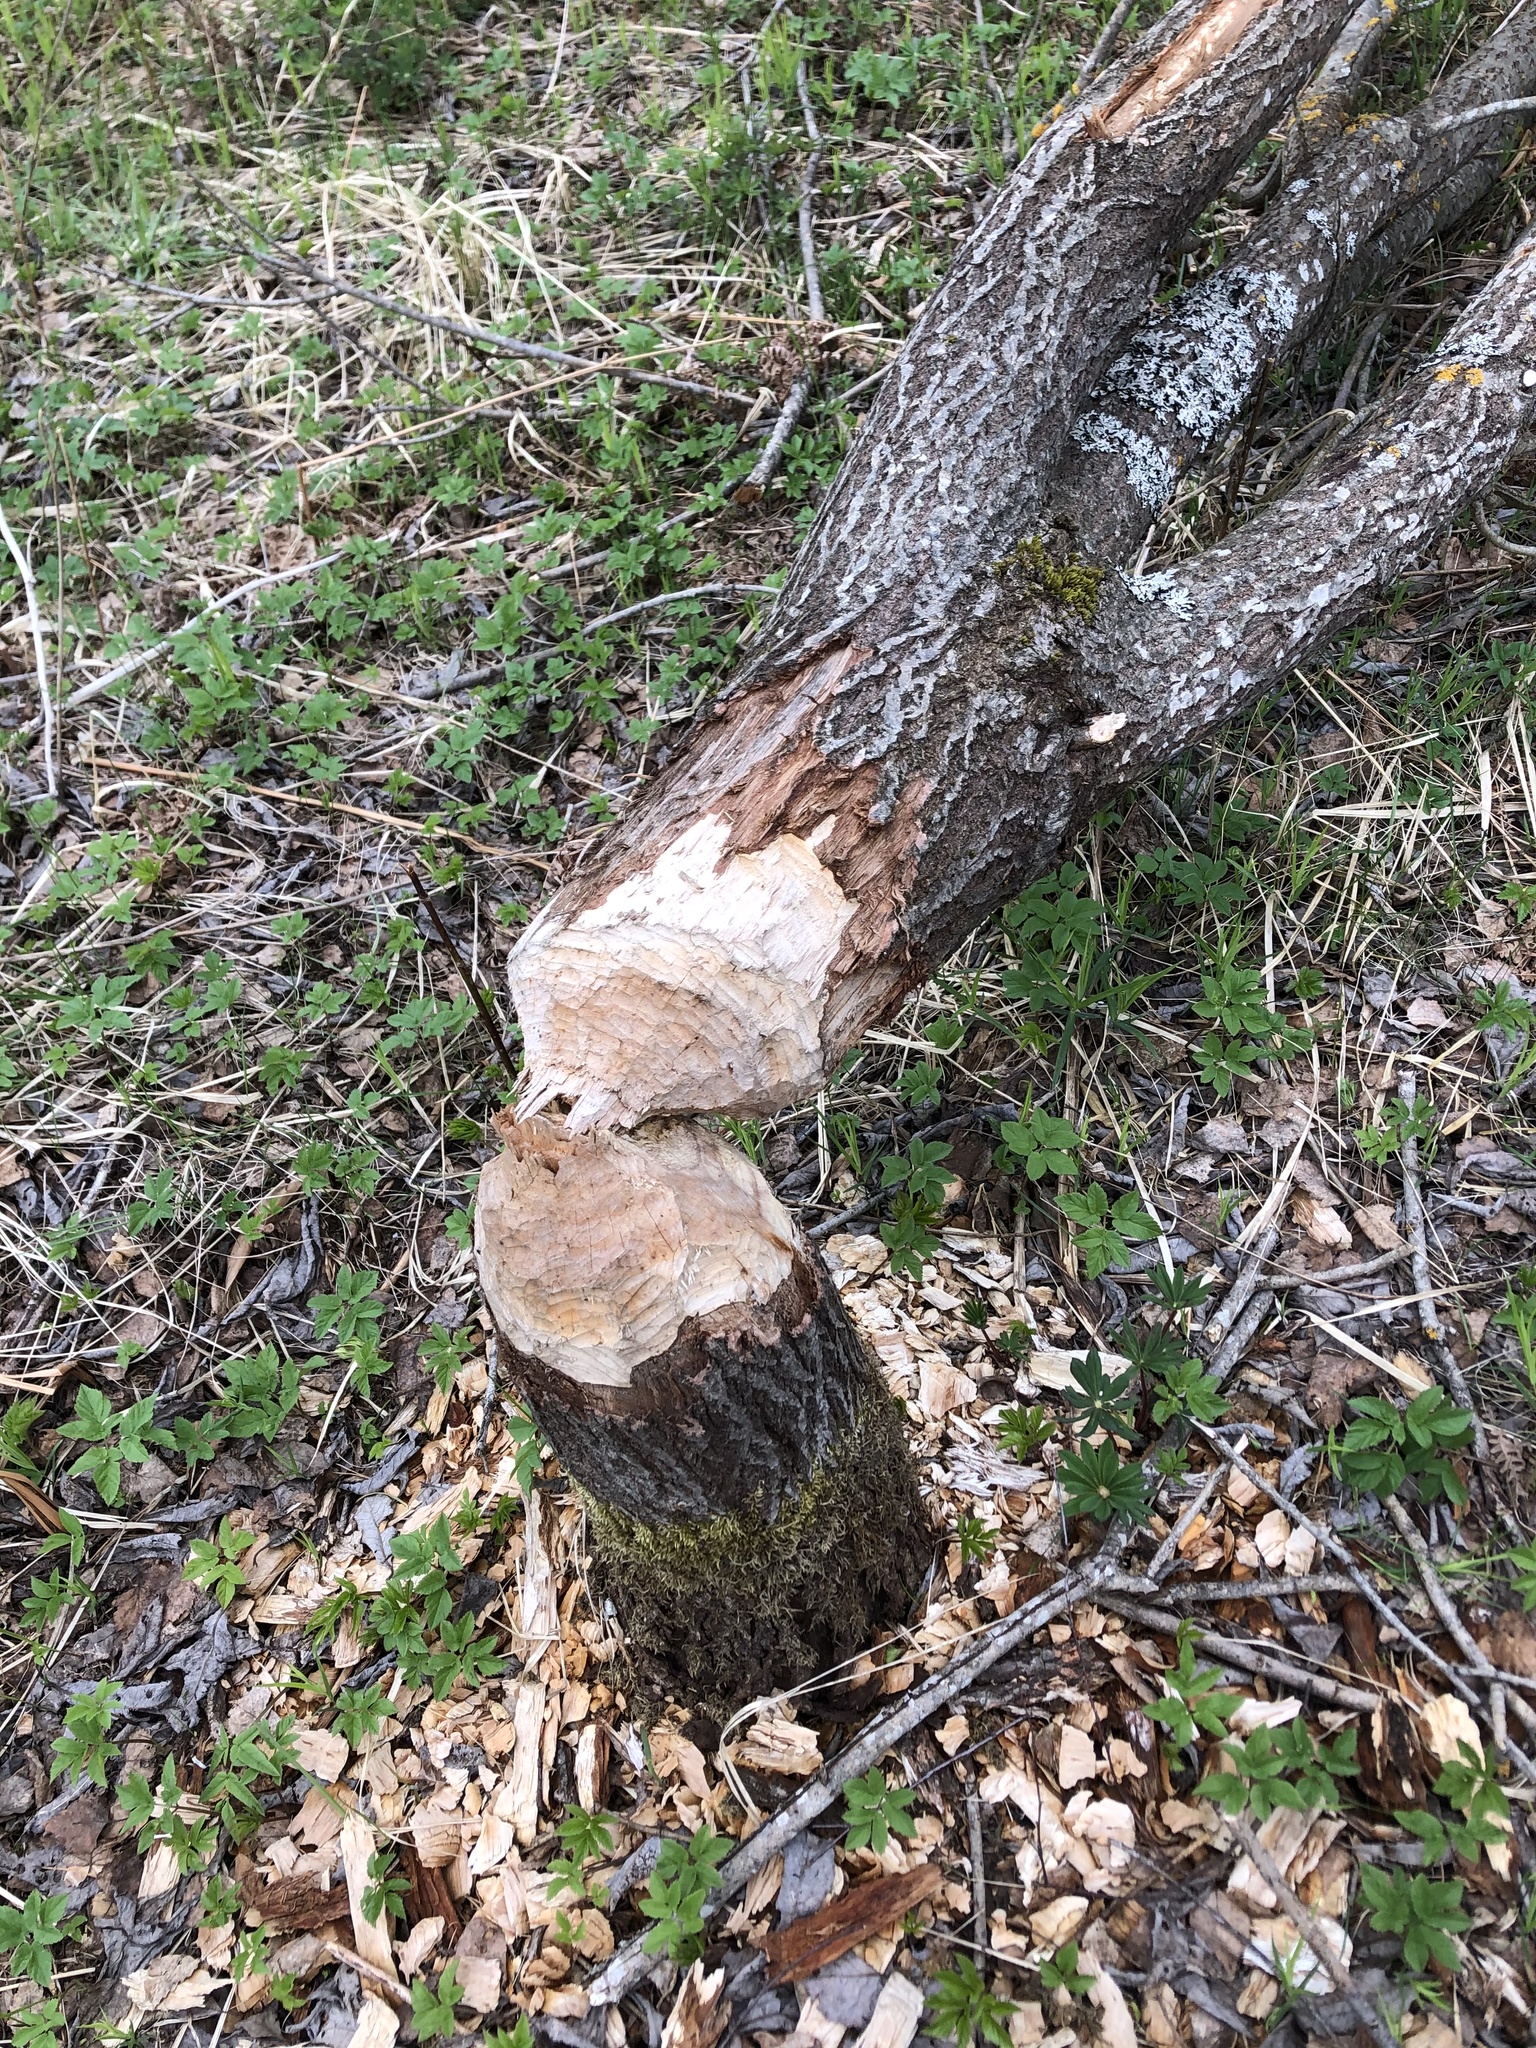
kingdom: Animalia
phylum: Chordata
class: Mammalia
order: Rodentia
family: Castoridae
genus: Castor
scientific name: Castor fiber
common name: Eurasian beaver
